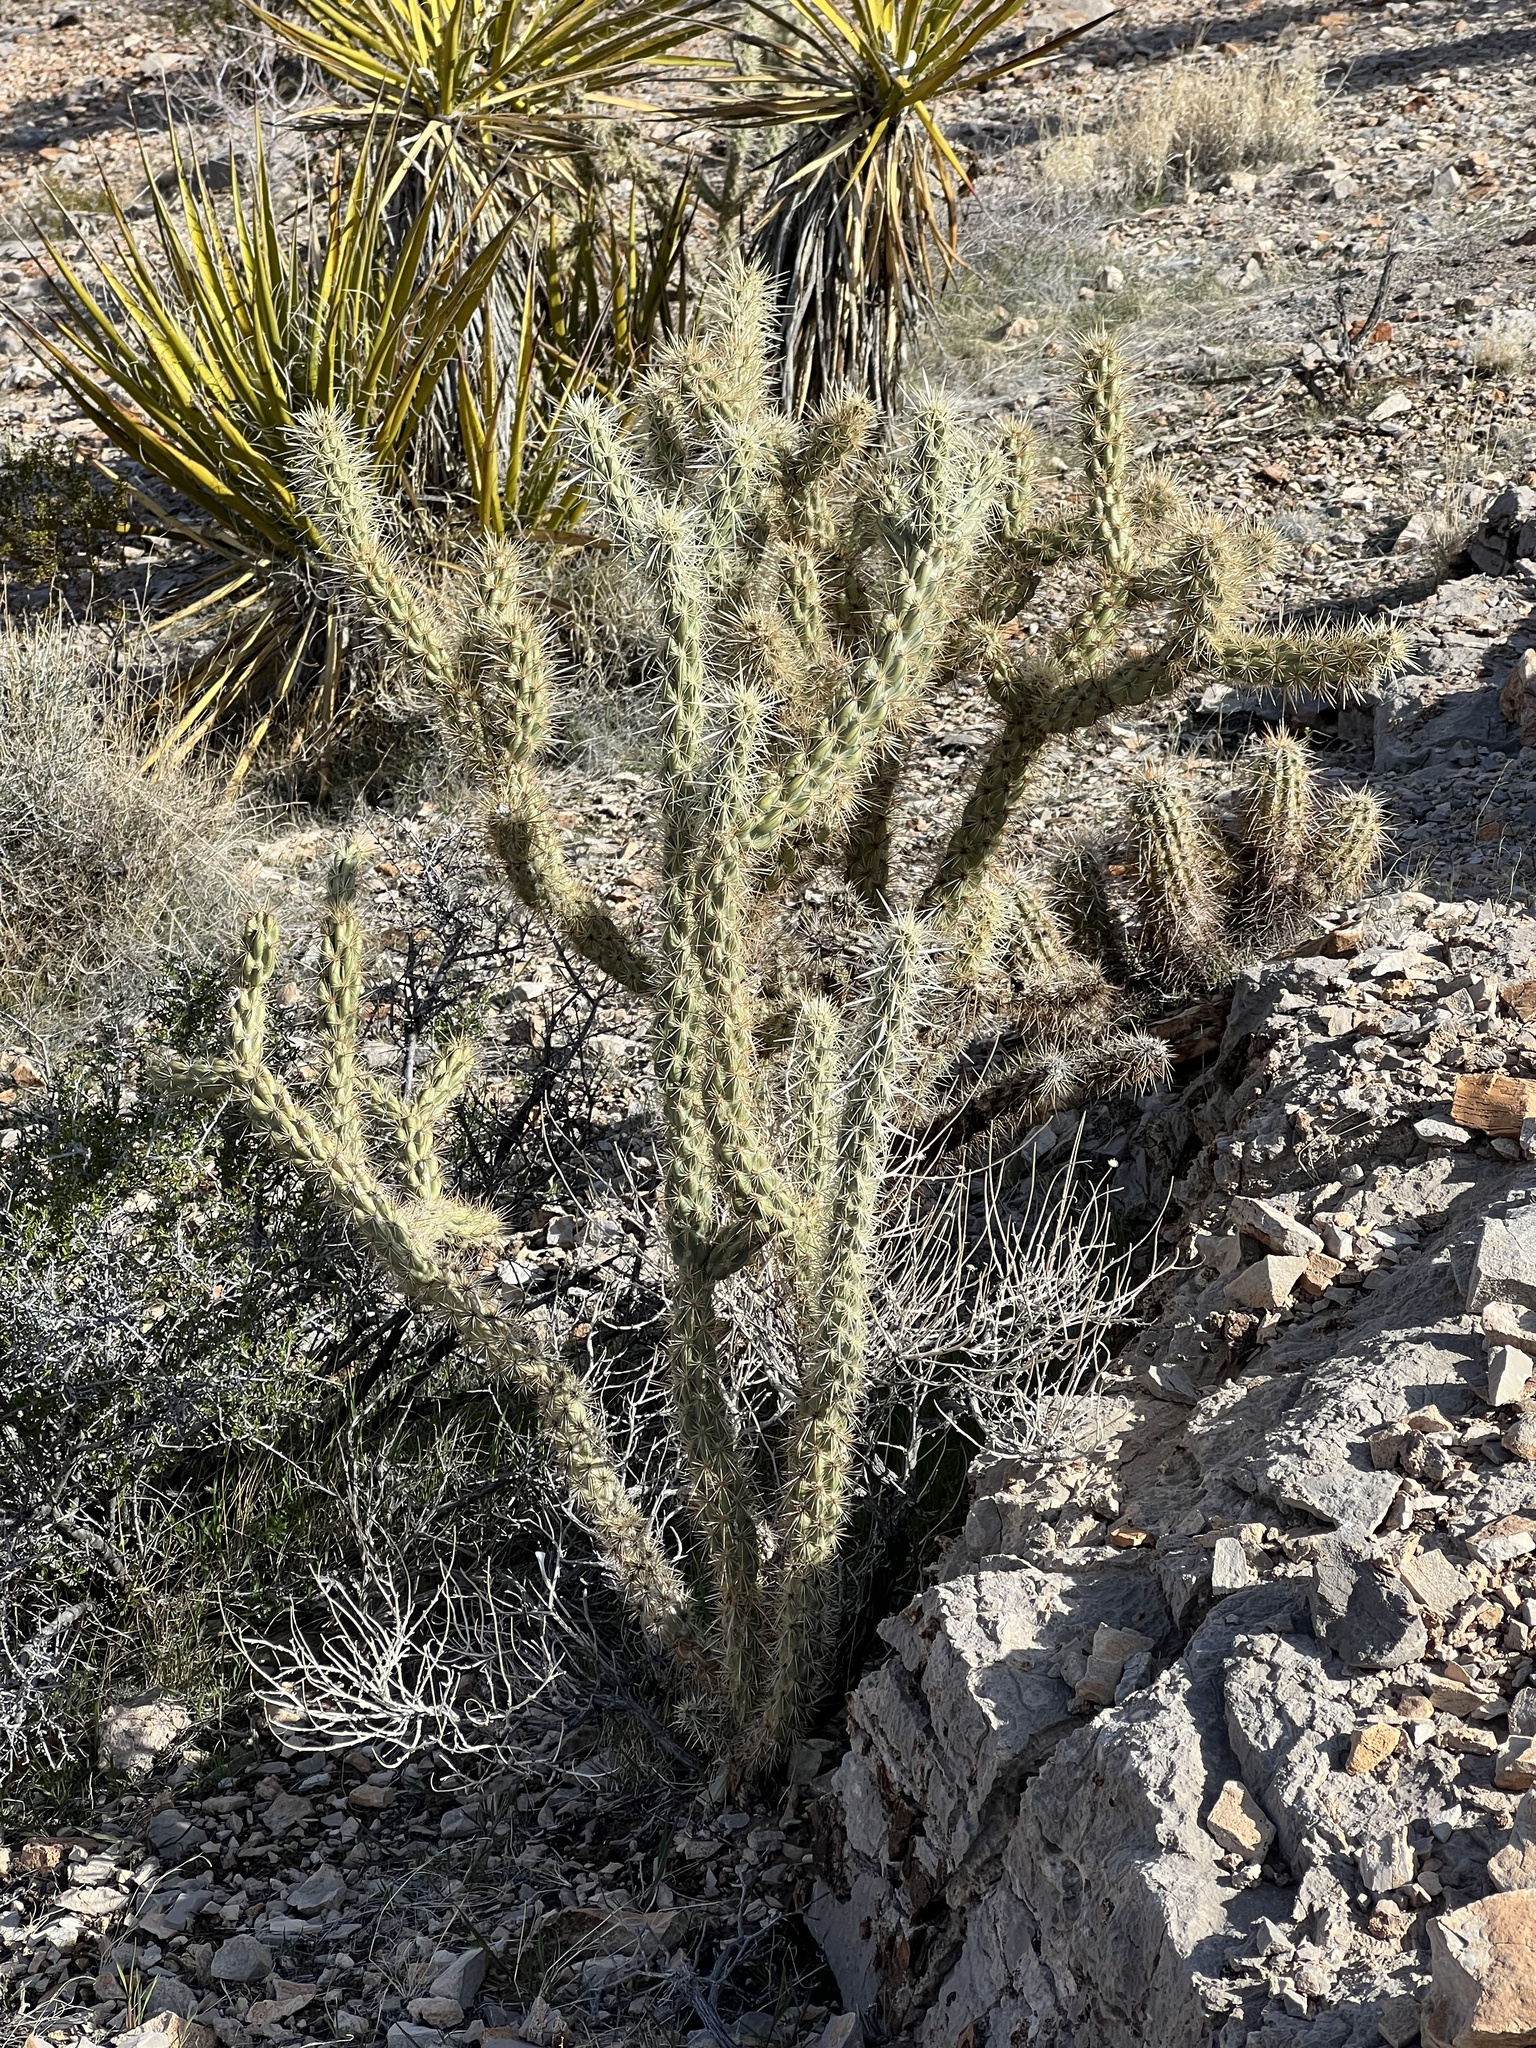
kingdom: Plantae
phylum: Tracheophyta
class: Magnoliopsida
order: Caryophyllales
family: Cactaceae
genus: Cylindropuntia
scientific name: Cylindropuntia acanthocarpa
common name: Buckhorn cholla
